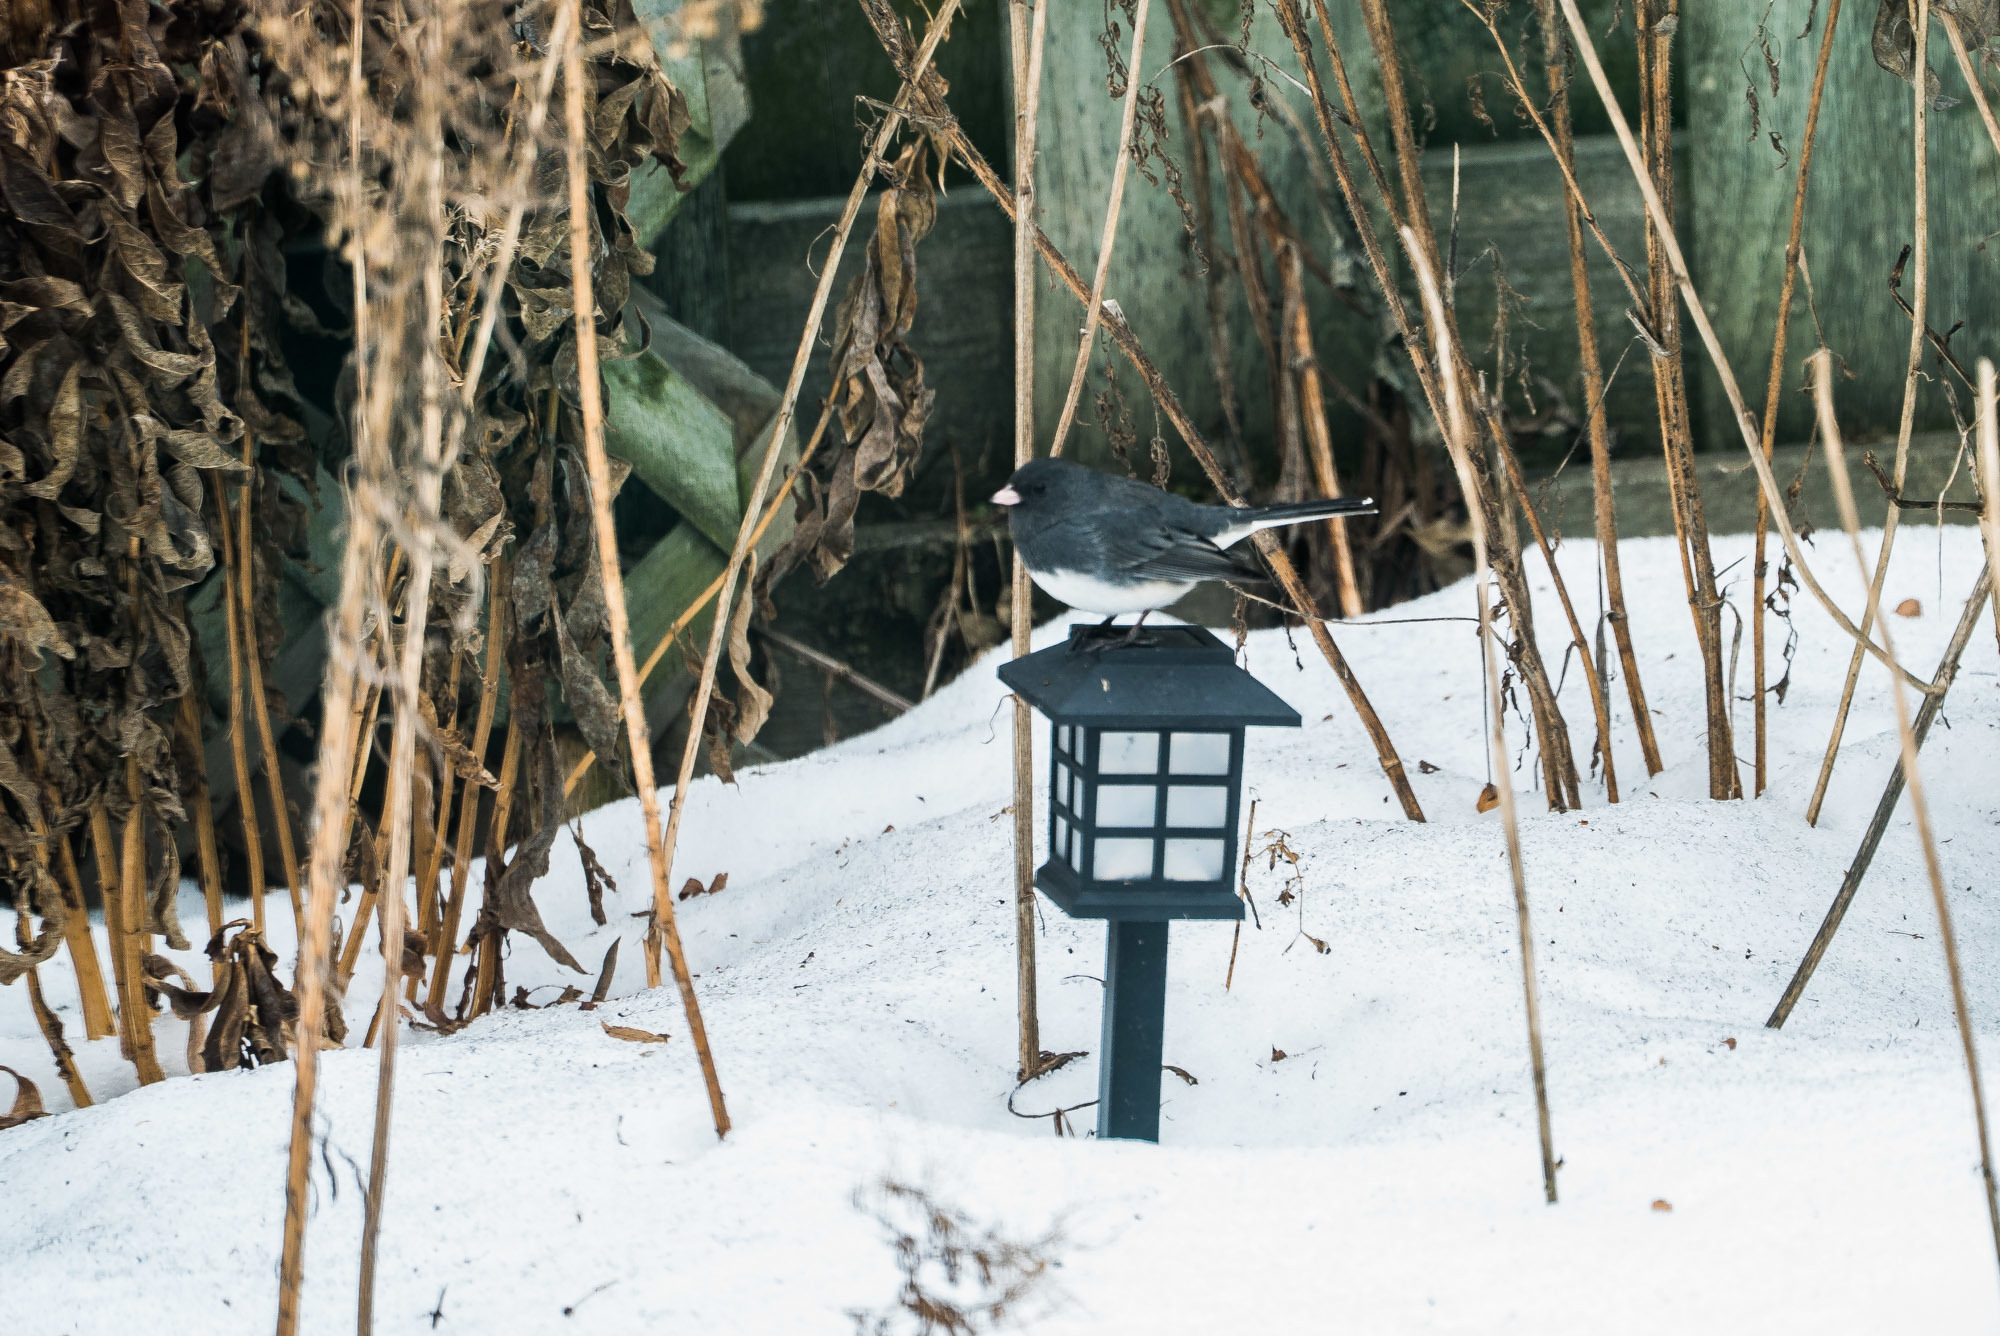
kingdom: Animalia
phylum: Chordata
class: Aves
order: Passeriformes
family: Passerellidae
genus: Junco
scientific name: Junco hyemalis
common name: Dark-eyed junco
